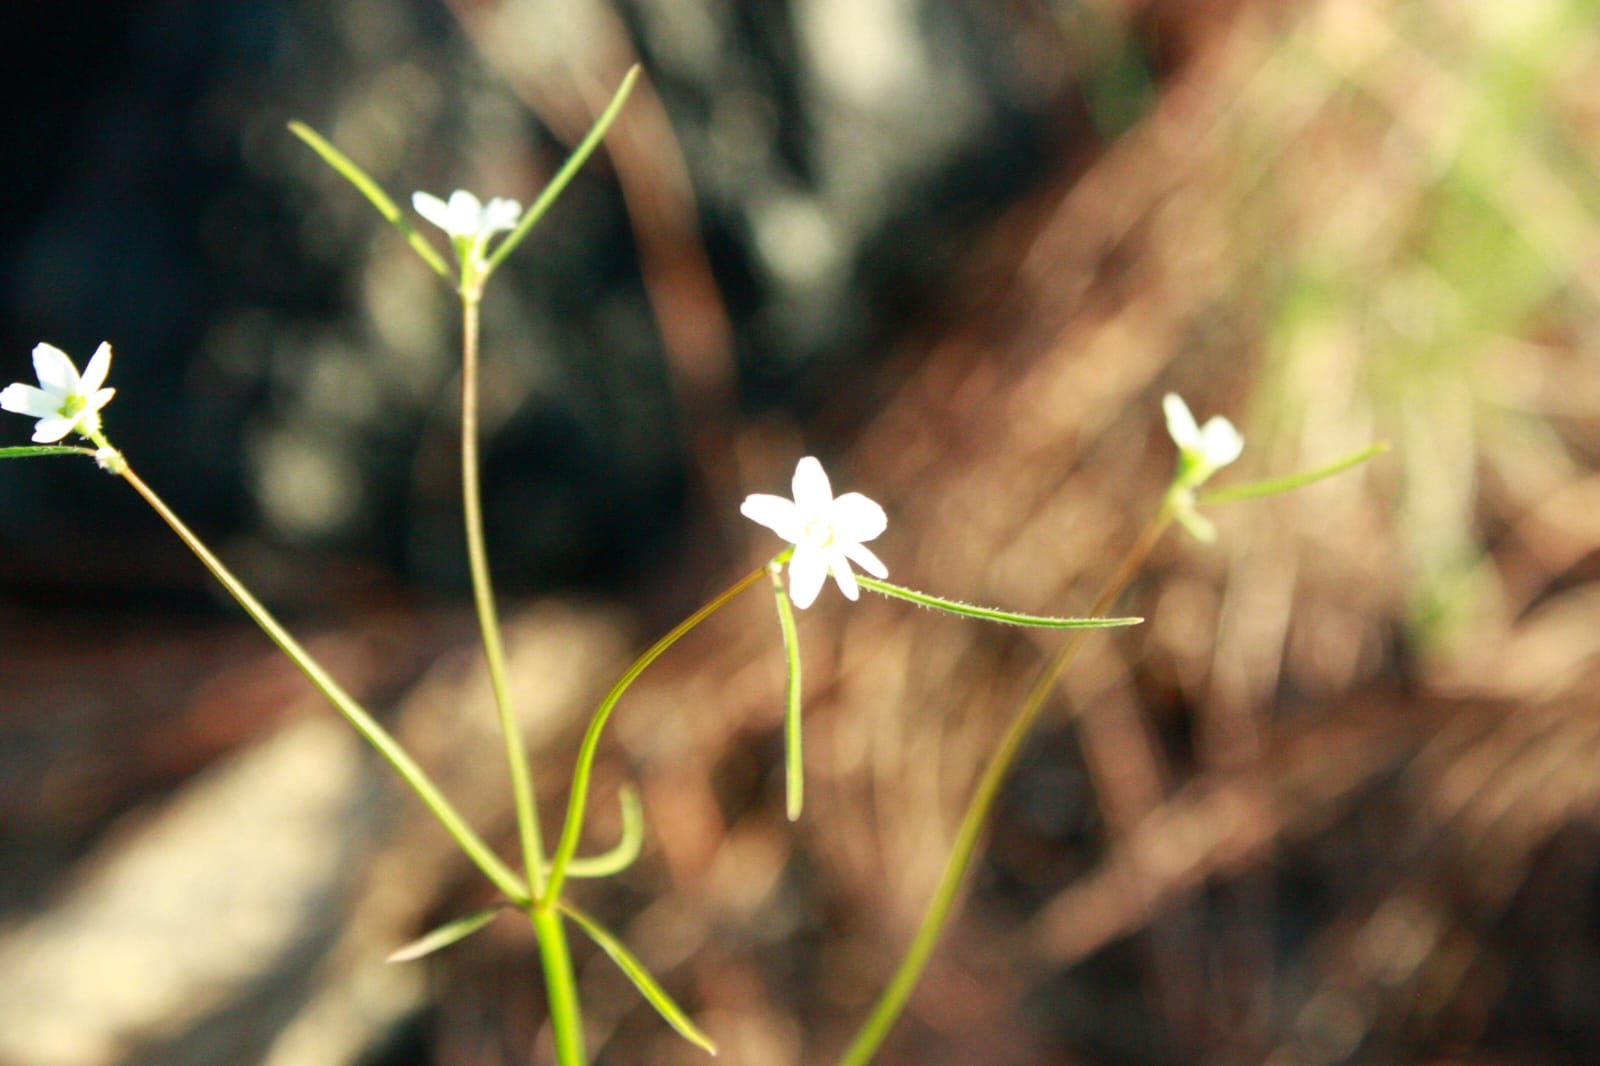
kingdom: Plantae
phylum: Tracheophyta
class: Magnoliopsida
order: Malpighiales
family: Euphorbiaceae
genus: Euphorbia
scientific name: Euphorbia sphaerorhiza
